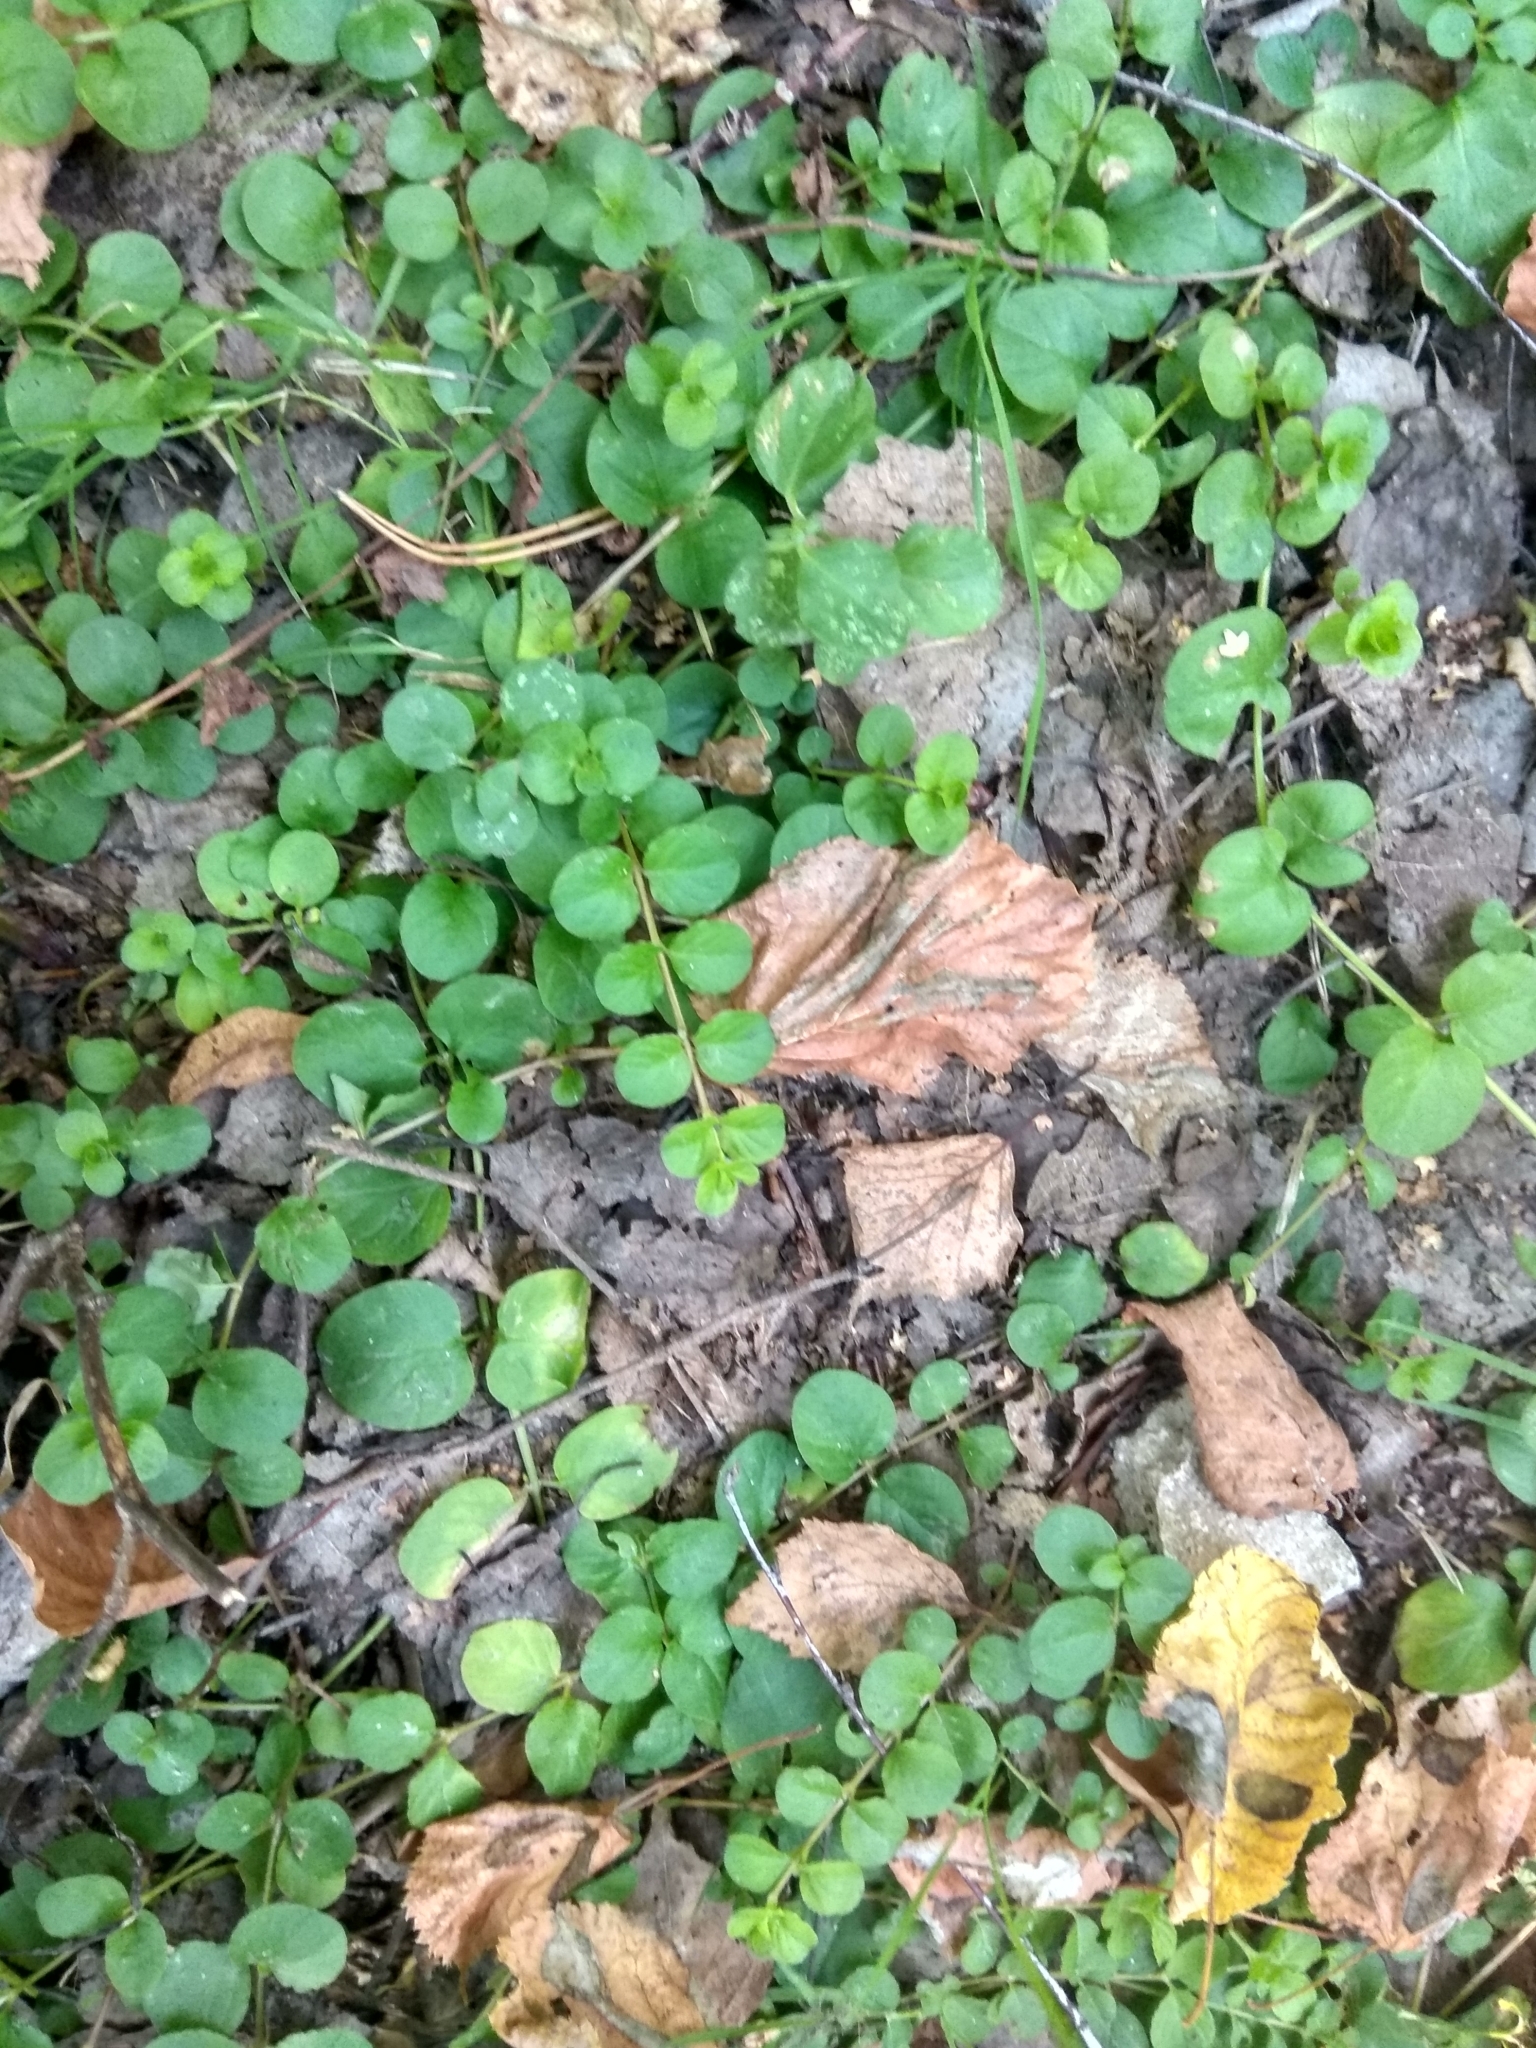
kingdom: Plantae
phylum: Tracheophyta
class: Magnoliopsida
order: Ericales
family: Primulaceae
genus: Lysimachia
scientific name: Lysimachia nummularia
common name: Moneywort
